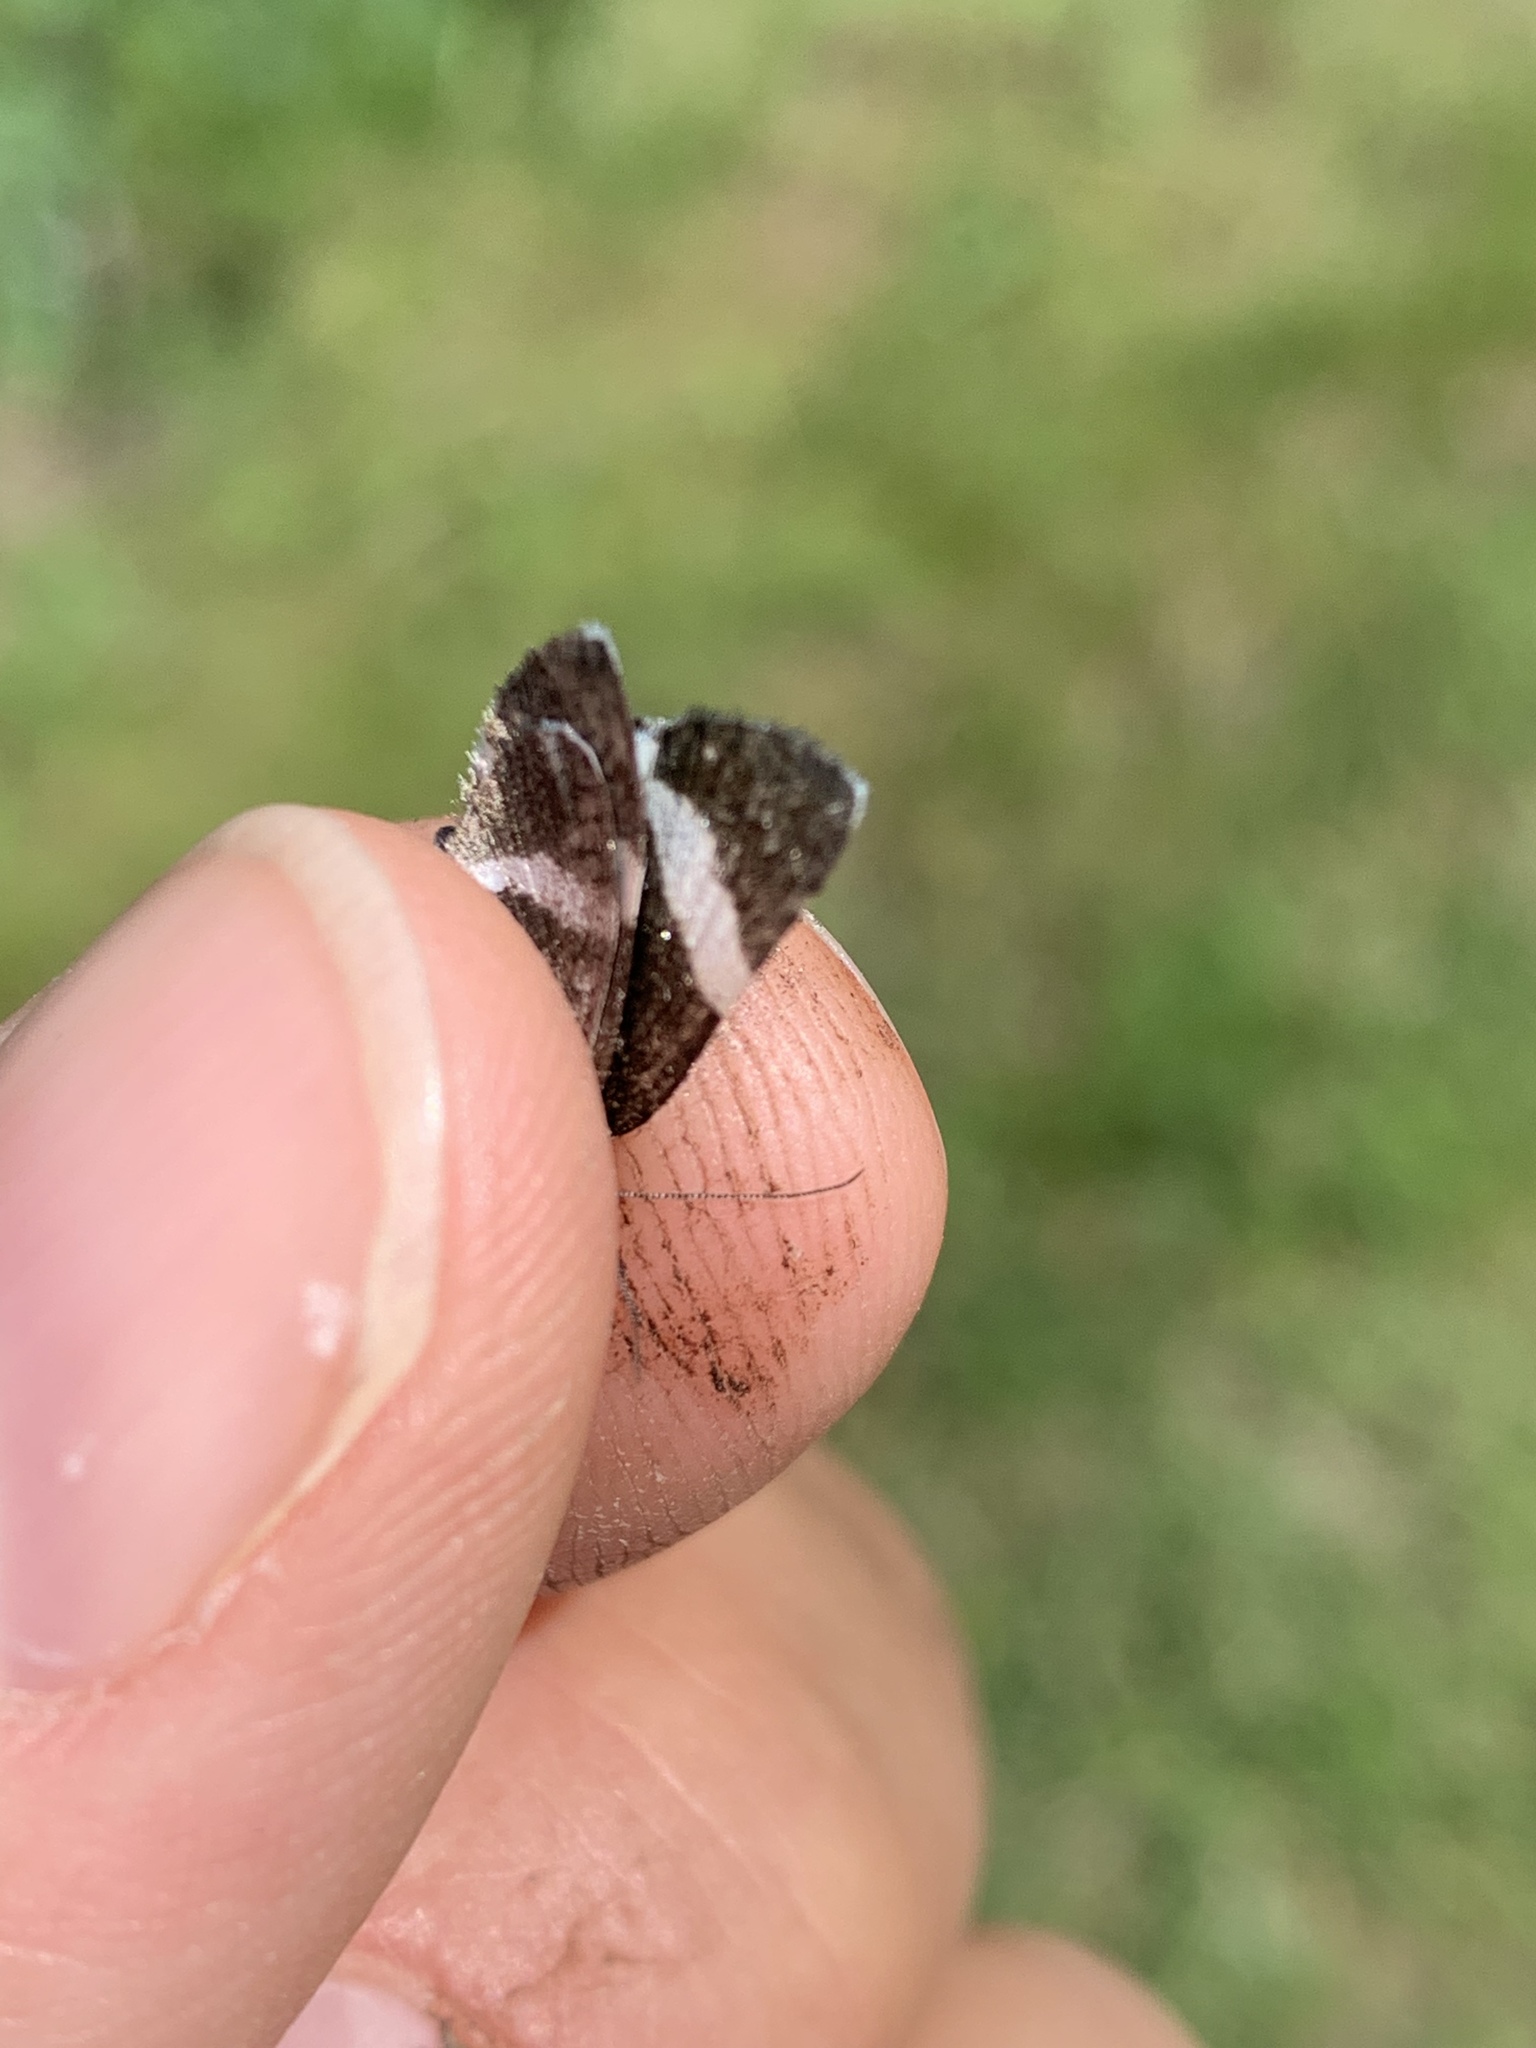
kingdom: Animalia
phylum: Arthropoda
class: Insecta
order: Lepidoptera
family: Geometridae
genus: Trichodezia
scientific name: Trichodezia albovittata
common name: White striped black
